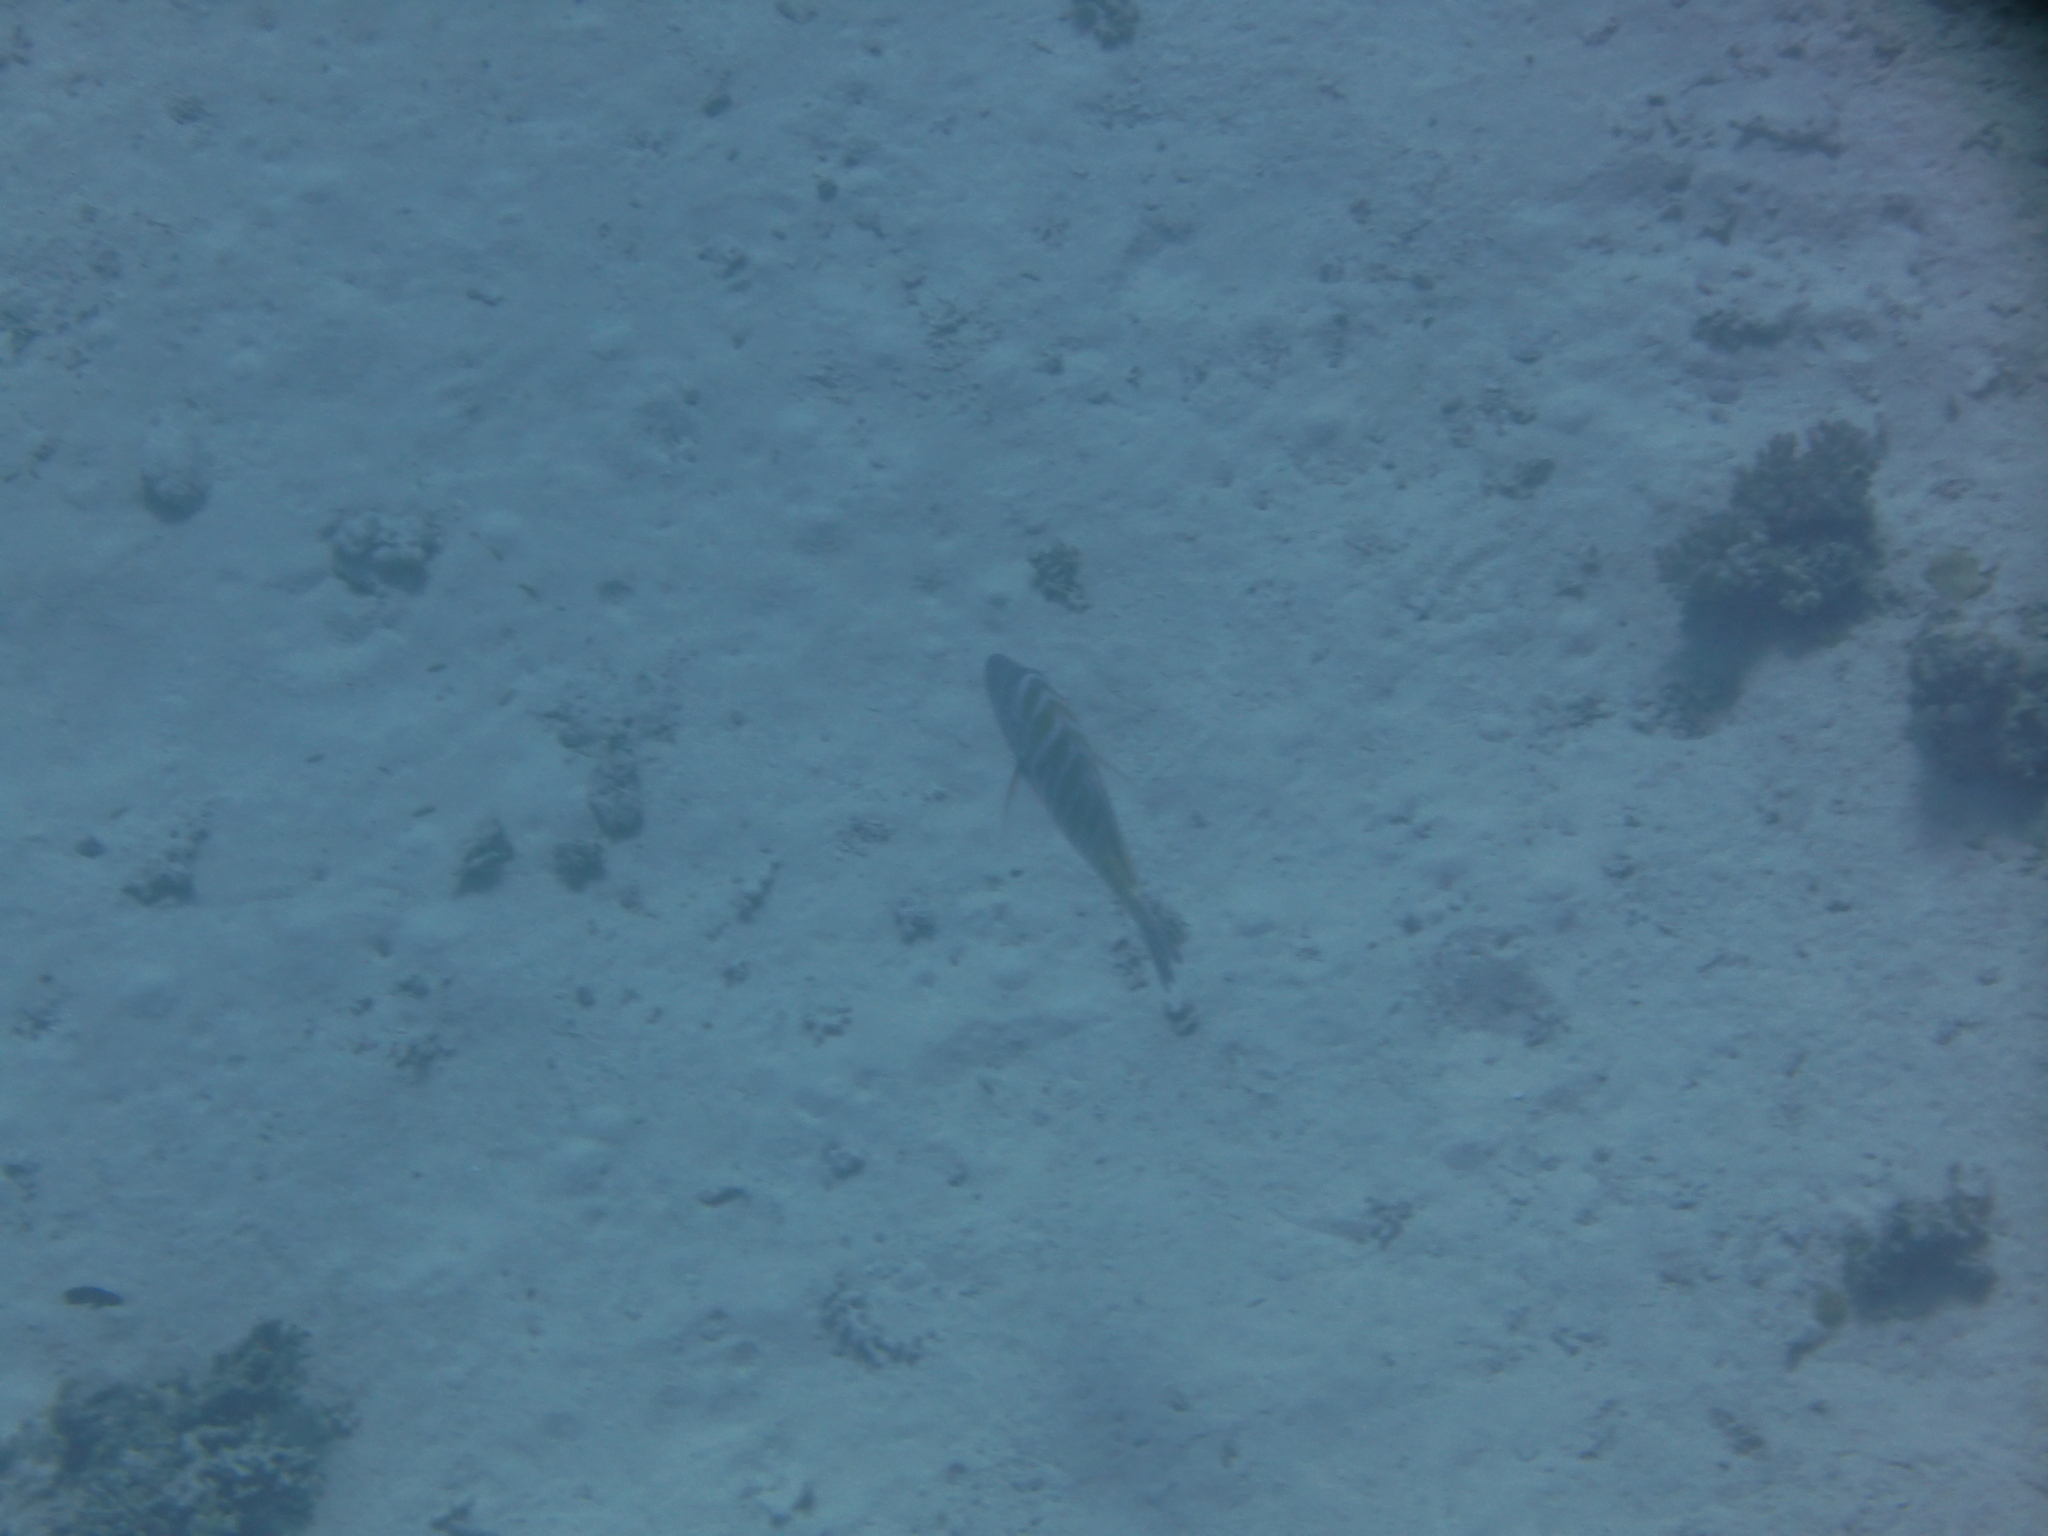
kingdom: Animalia
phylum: Chordata
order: Perciformes
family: Lethrinidae
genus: Lethrinus
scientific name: Lethrinus mahsena
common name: Sky emperor
